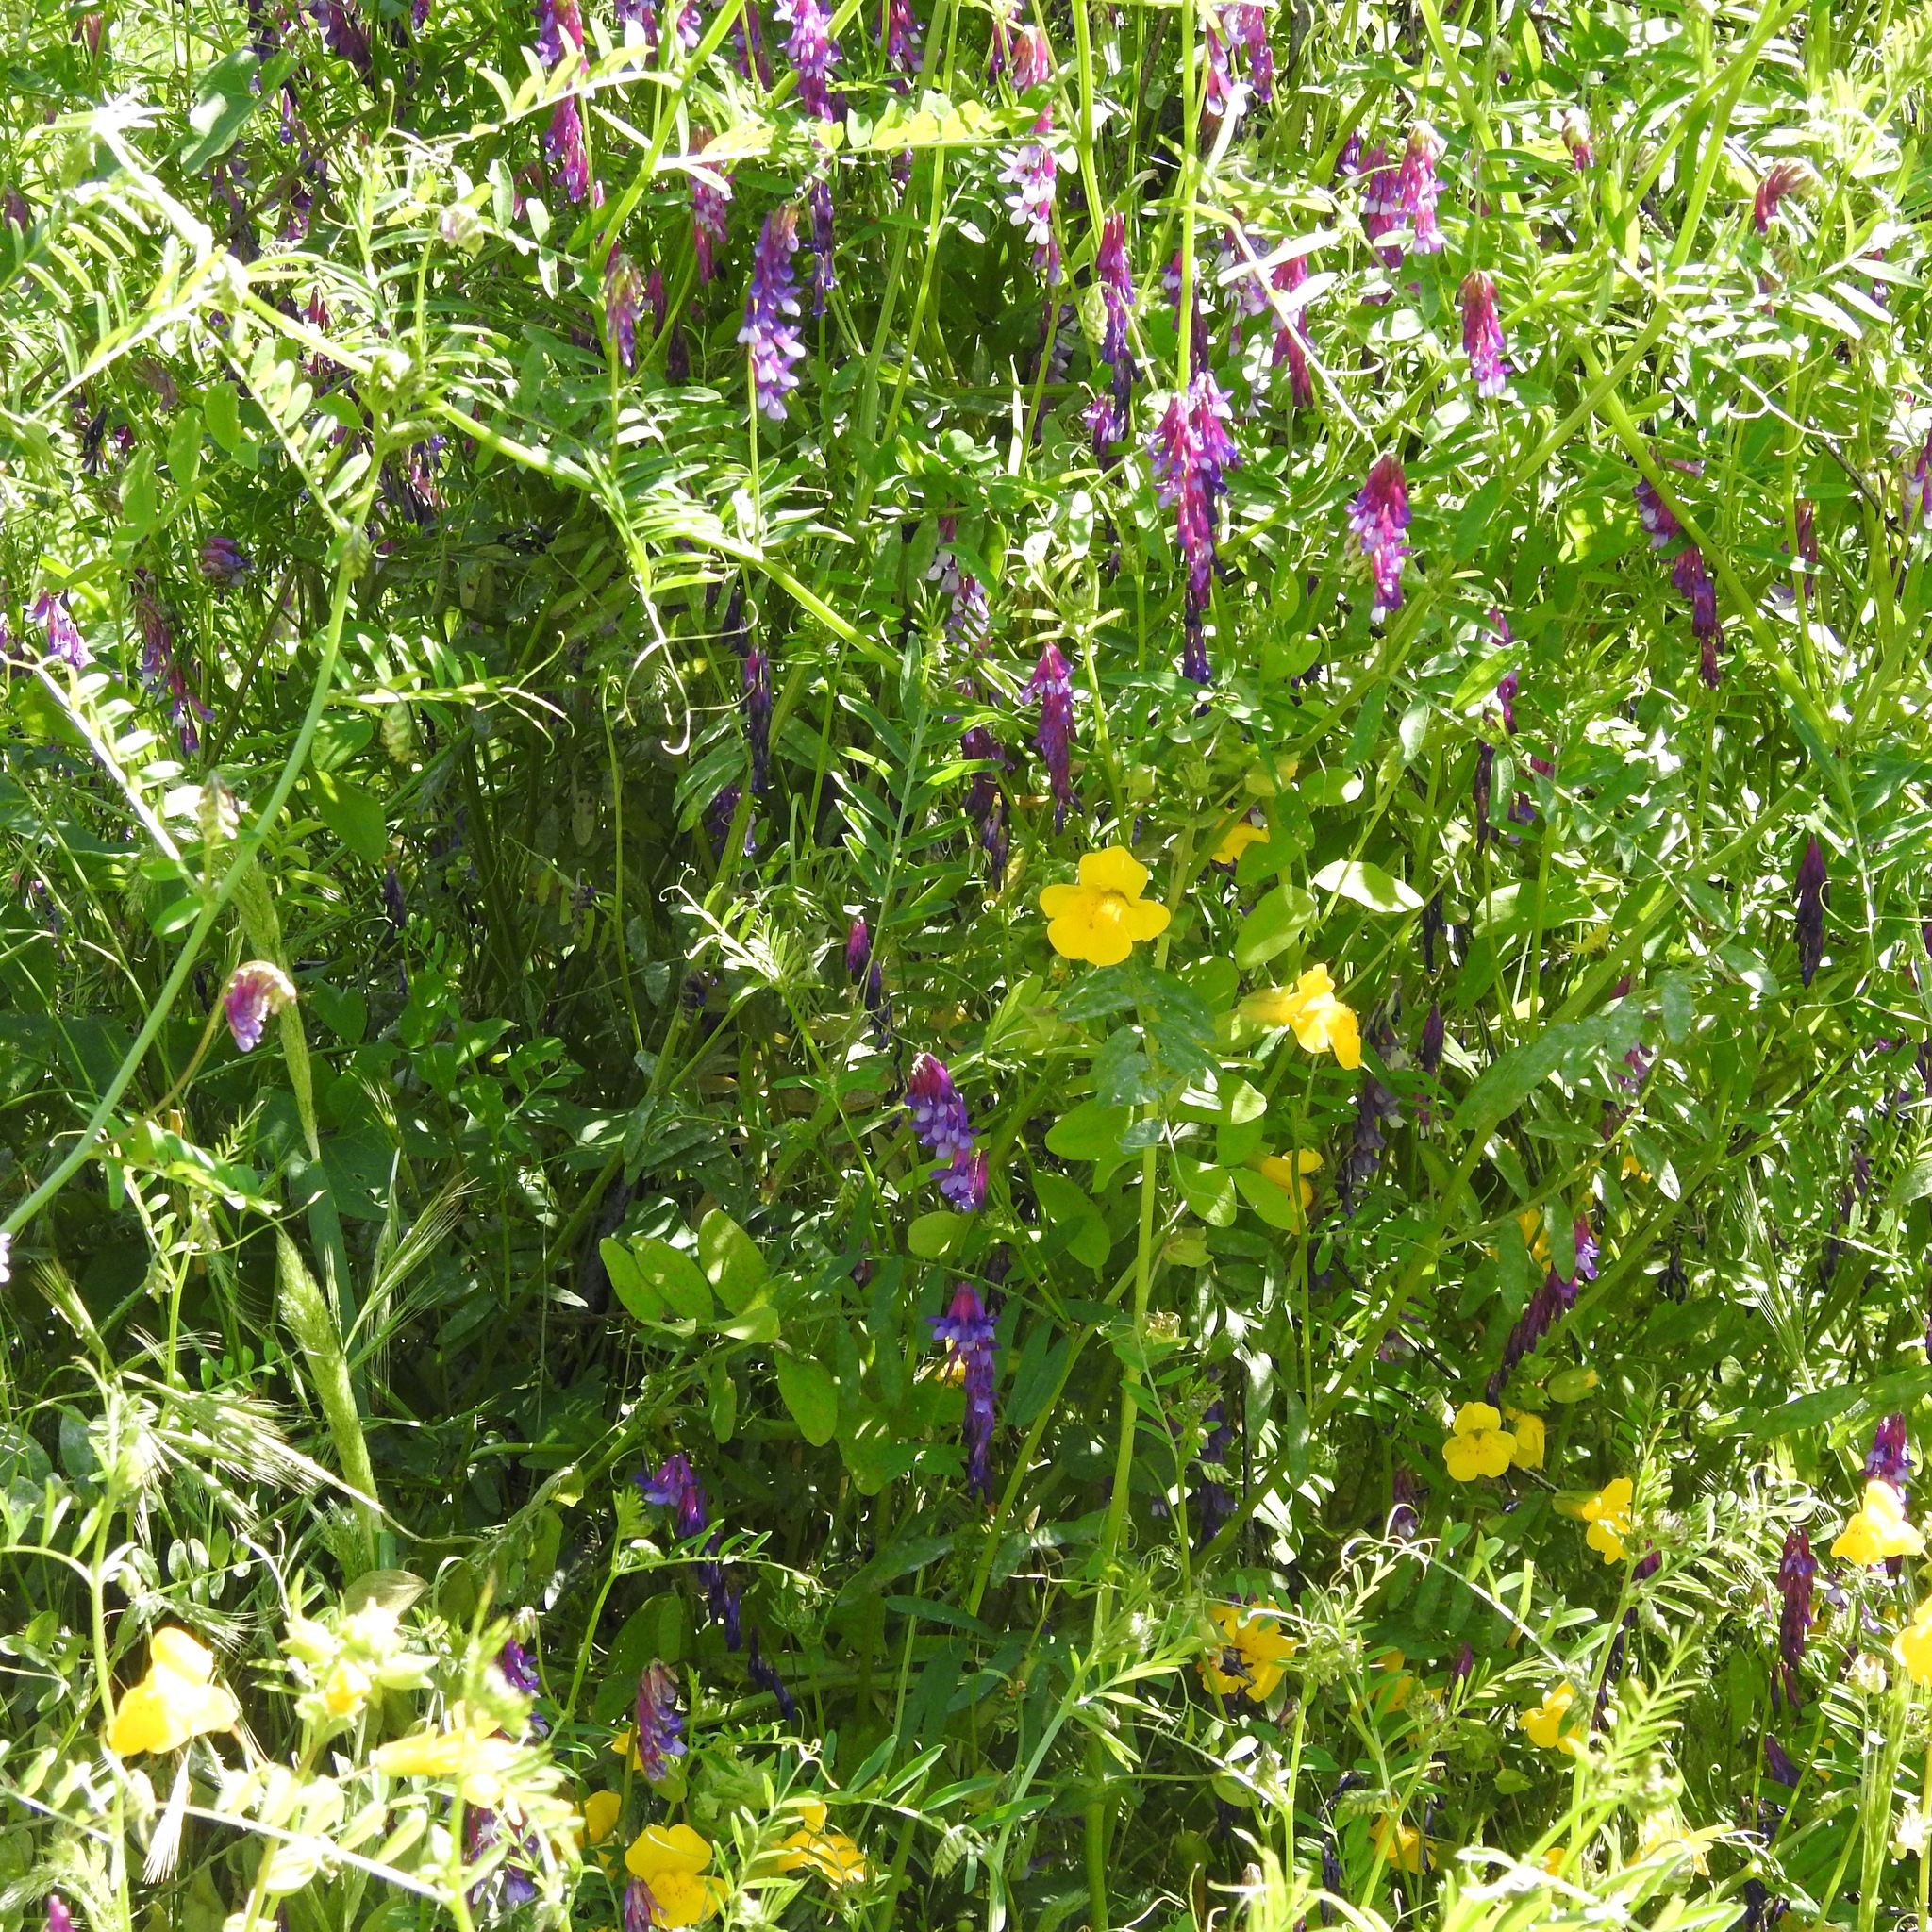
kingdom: Plantae
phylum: Tracheophyta
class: Magnoliopsida
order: Fabales
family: Fabaceae
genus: Vicia
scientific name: Vicia villosa
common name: Fodder vetch
